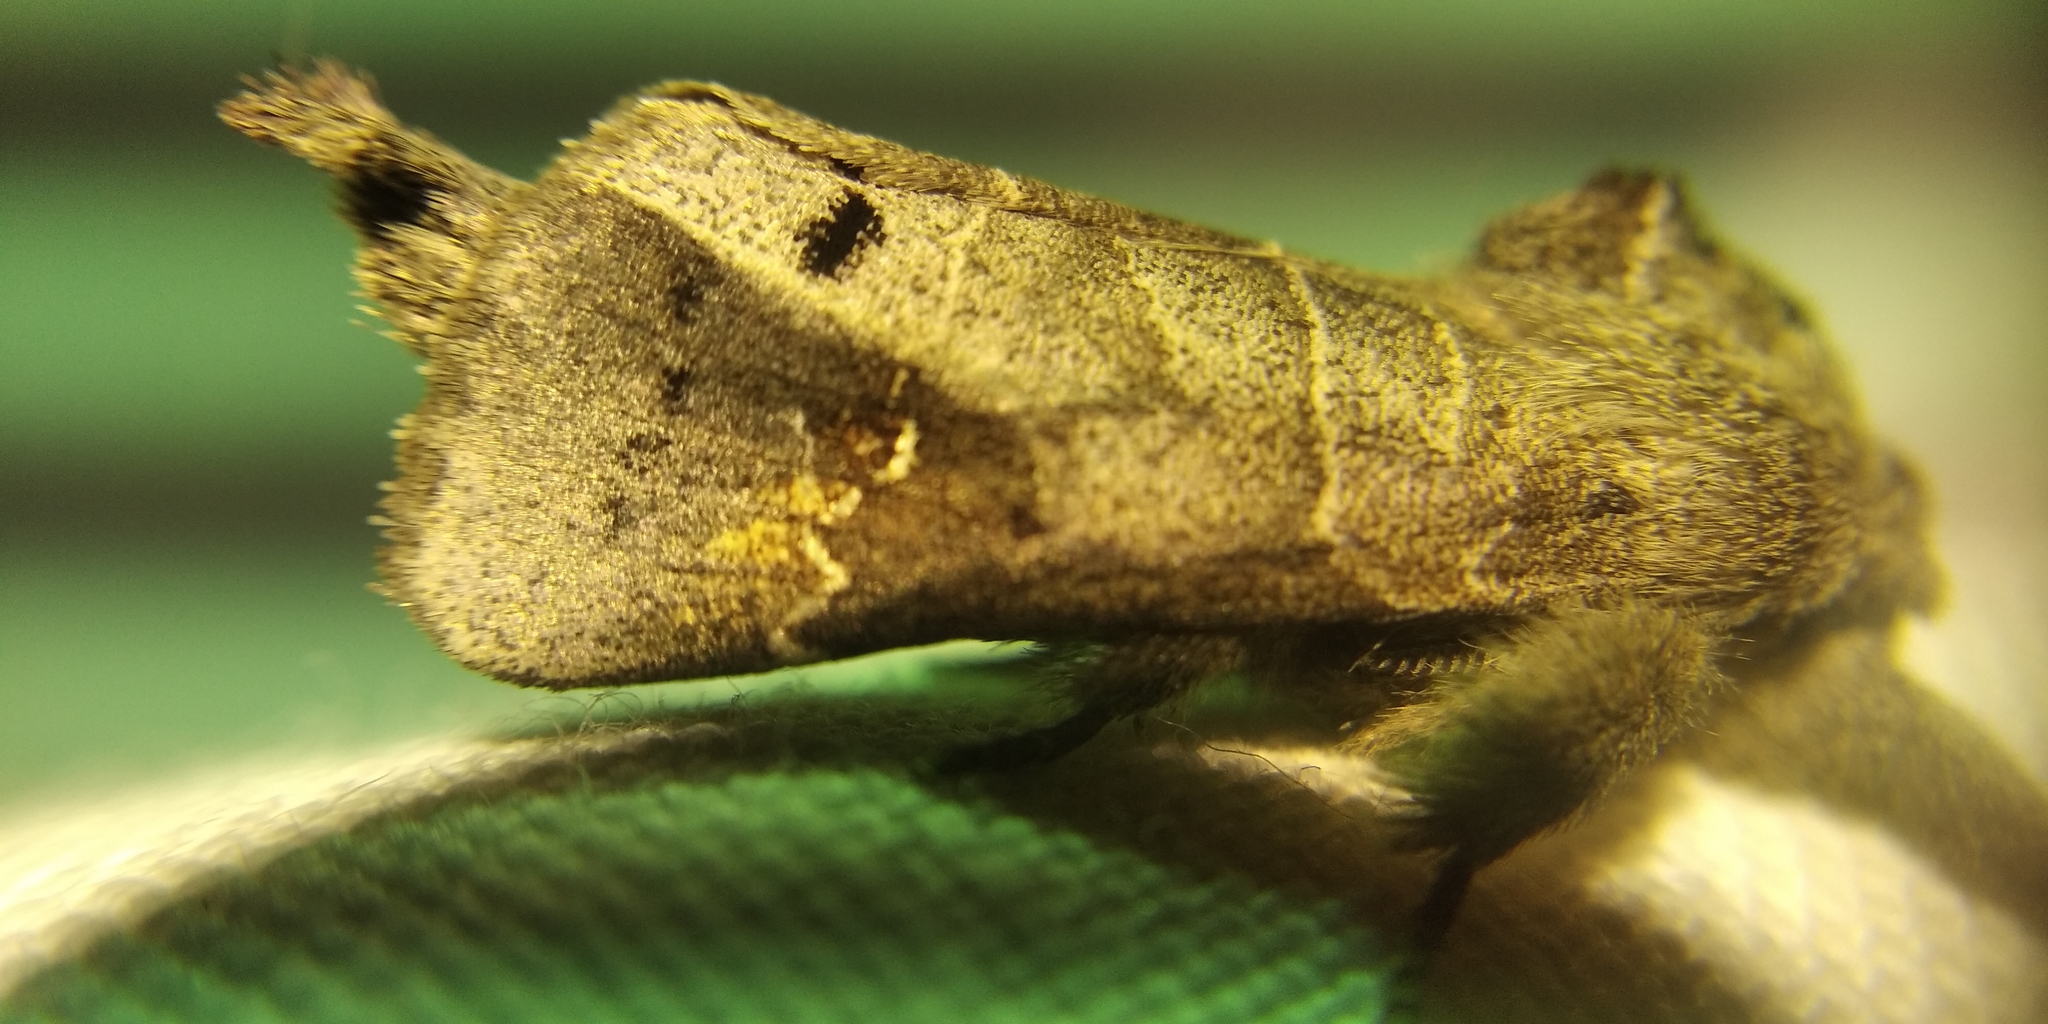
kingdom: Animalia
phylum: Arthropoda
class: Insecta
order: Lepidoptera
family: Notodontidae
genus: Clostera
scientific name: Clostera anachoreta
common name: Scarce chocolate-tip
